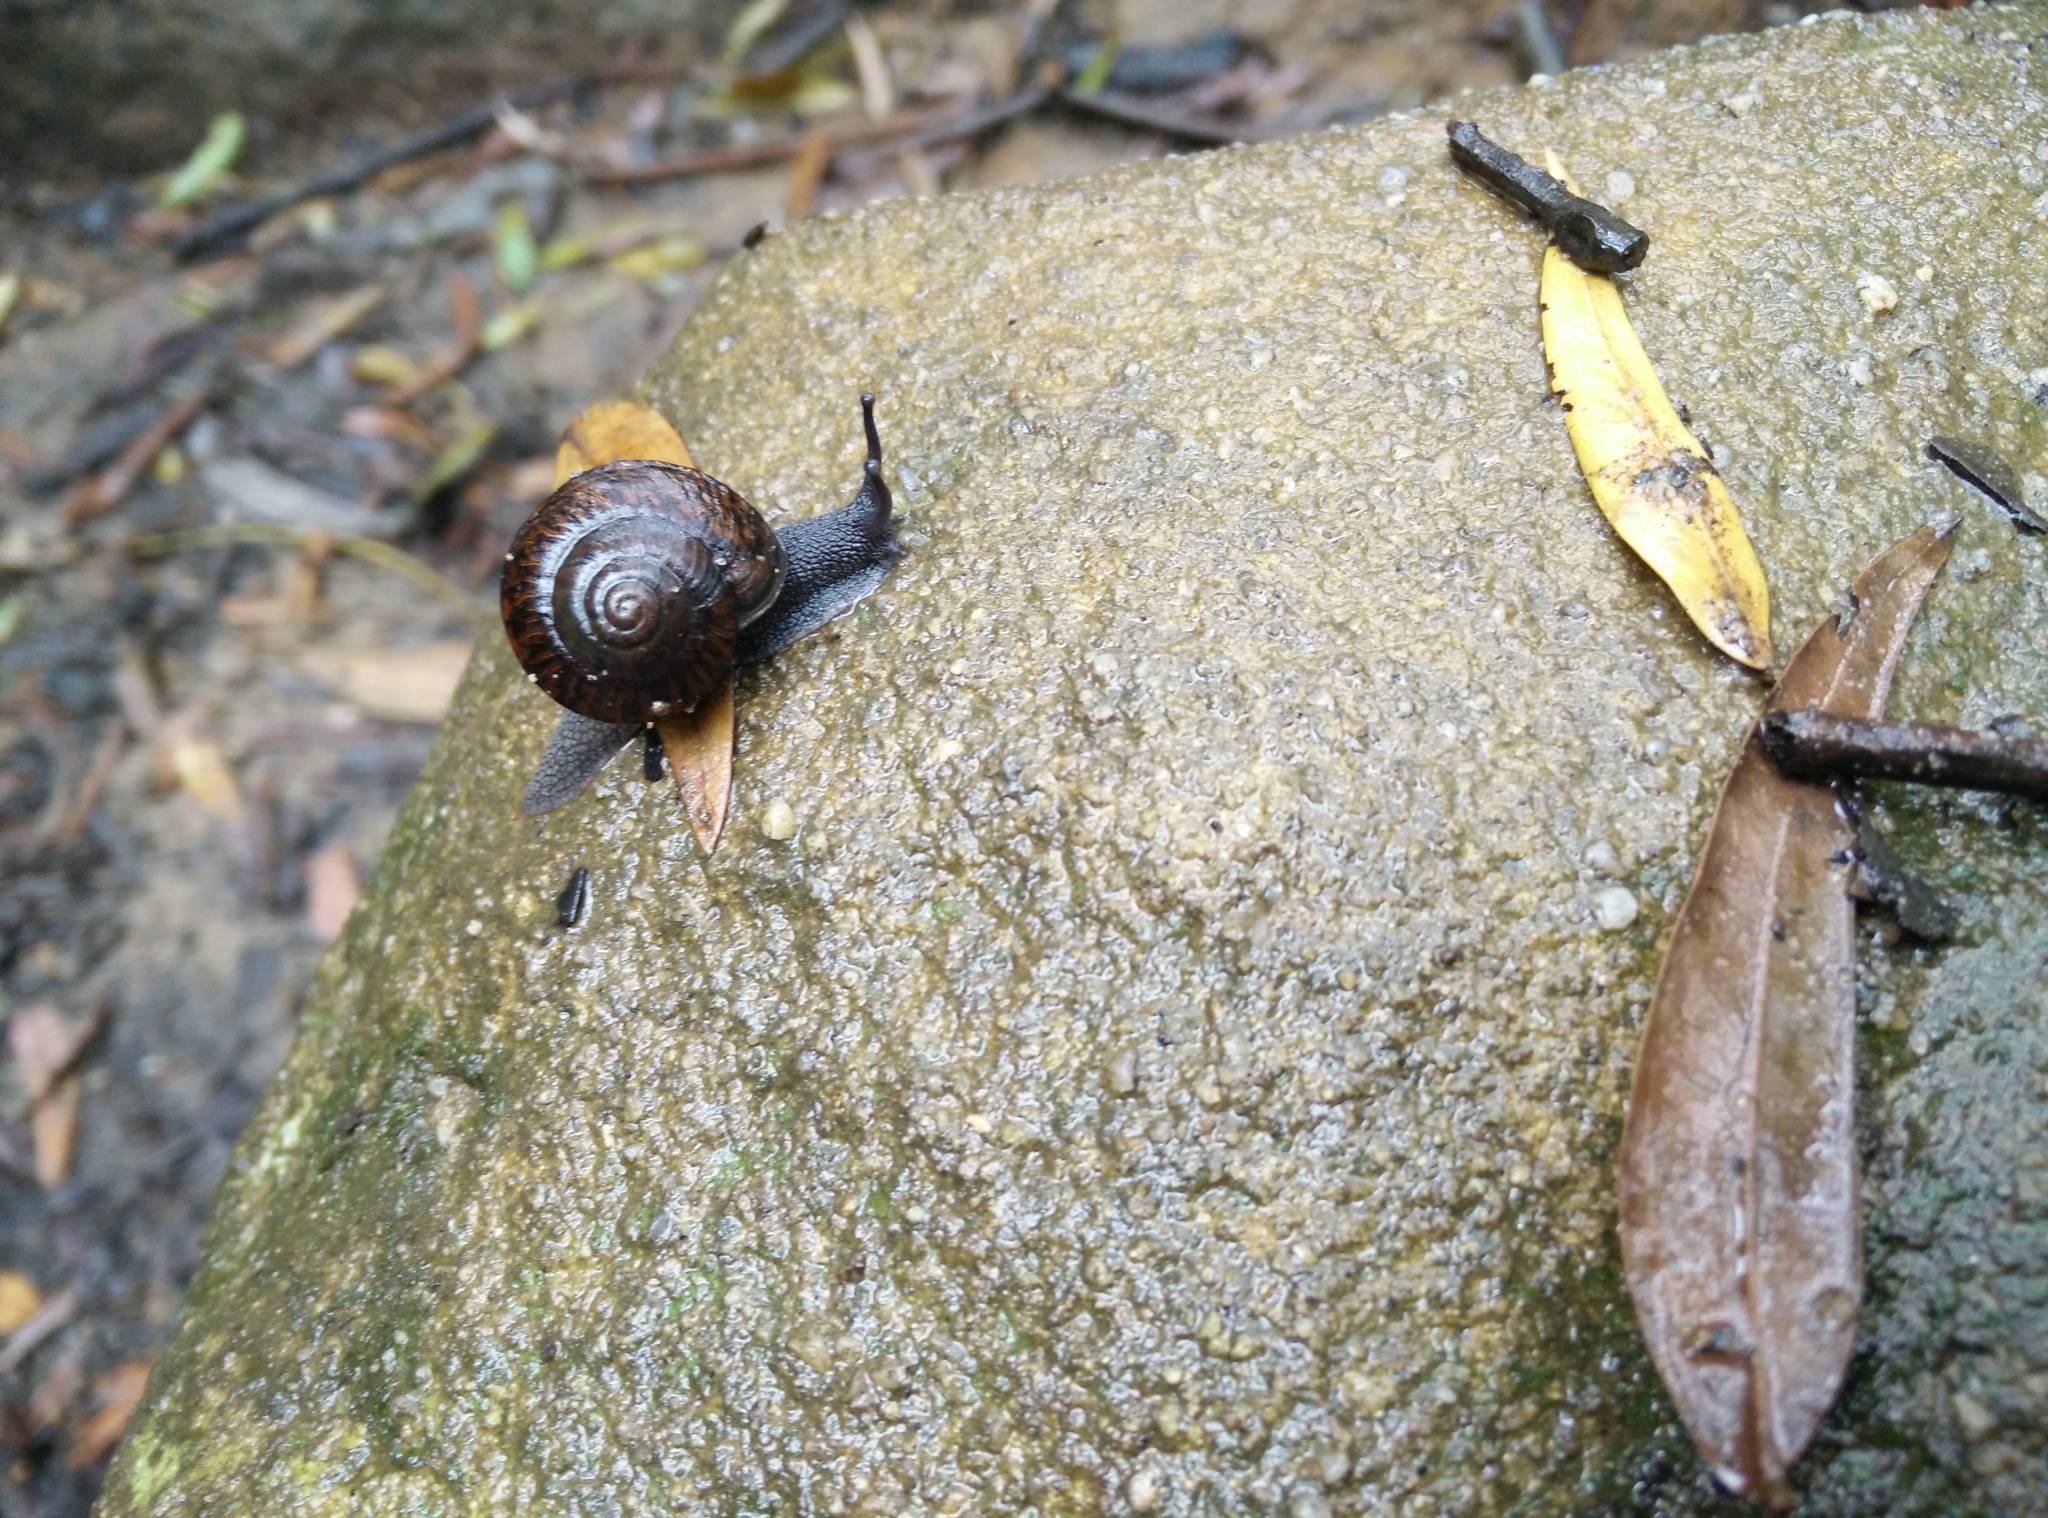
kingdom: Animalia
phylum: Mollusca
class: Gastropoda
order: Stylommatophora
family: Camaenidae
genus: Pommerhelix
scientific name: Pommerhelix monacha
